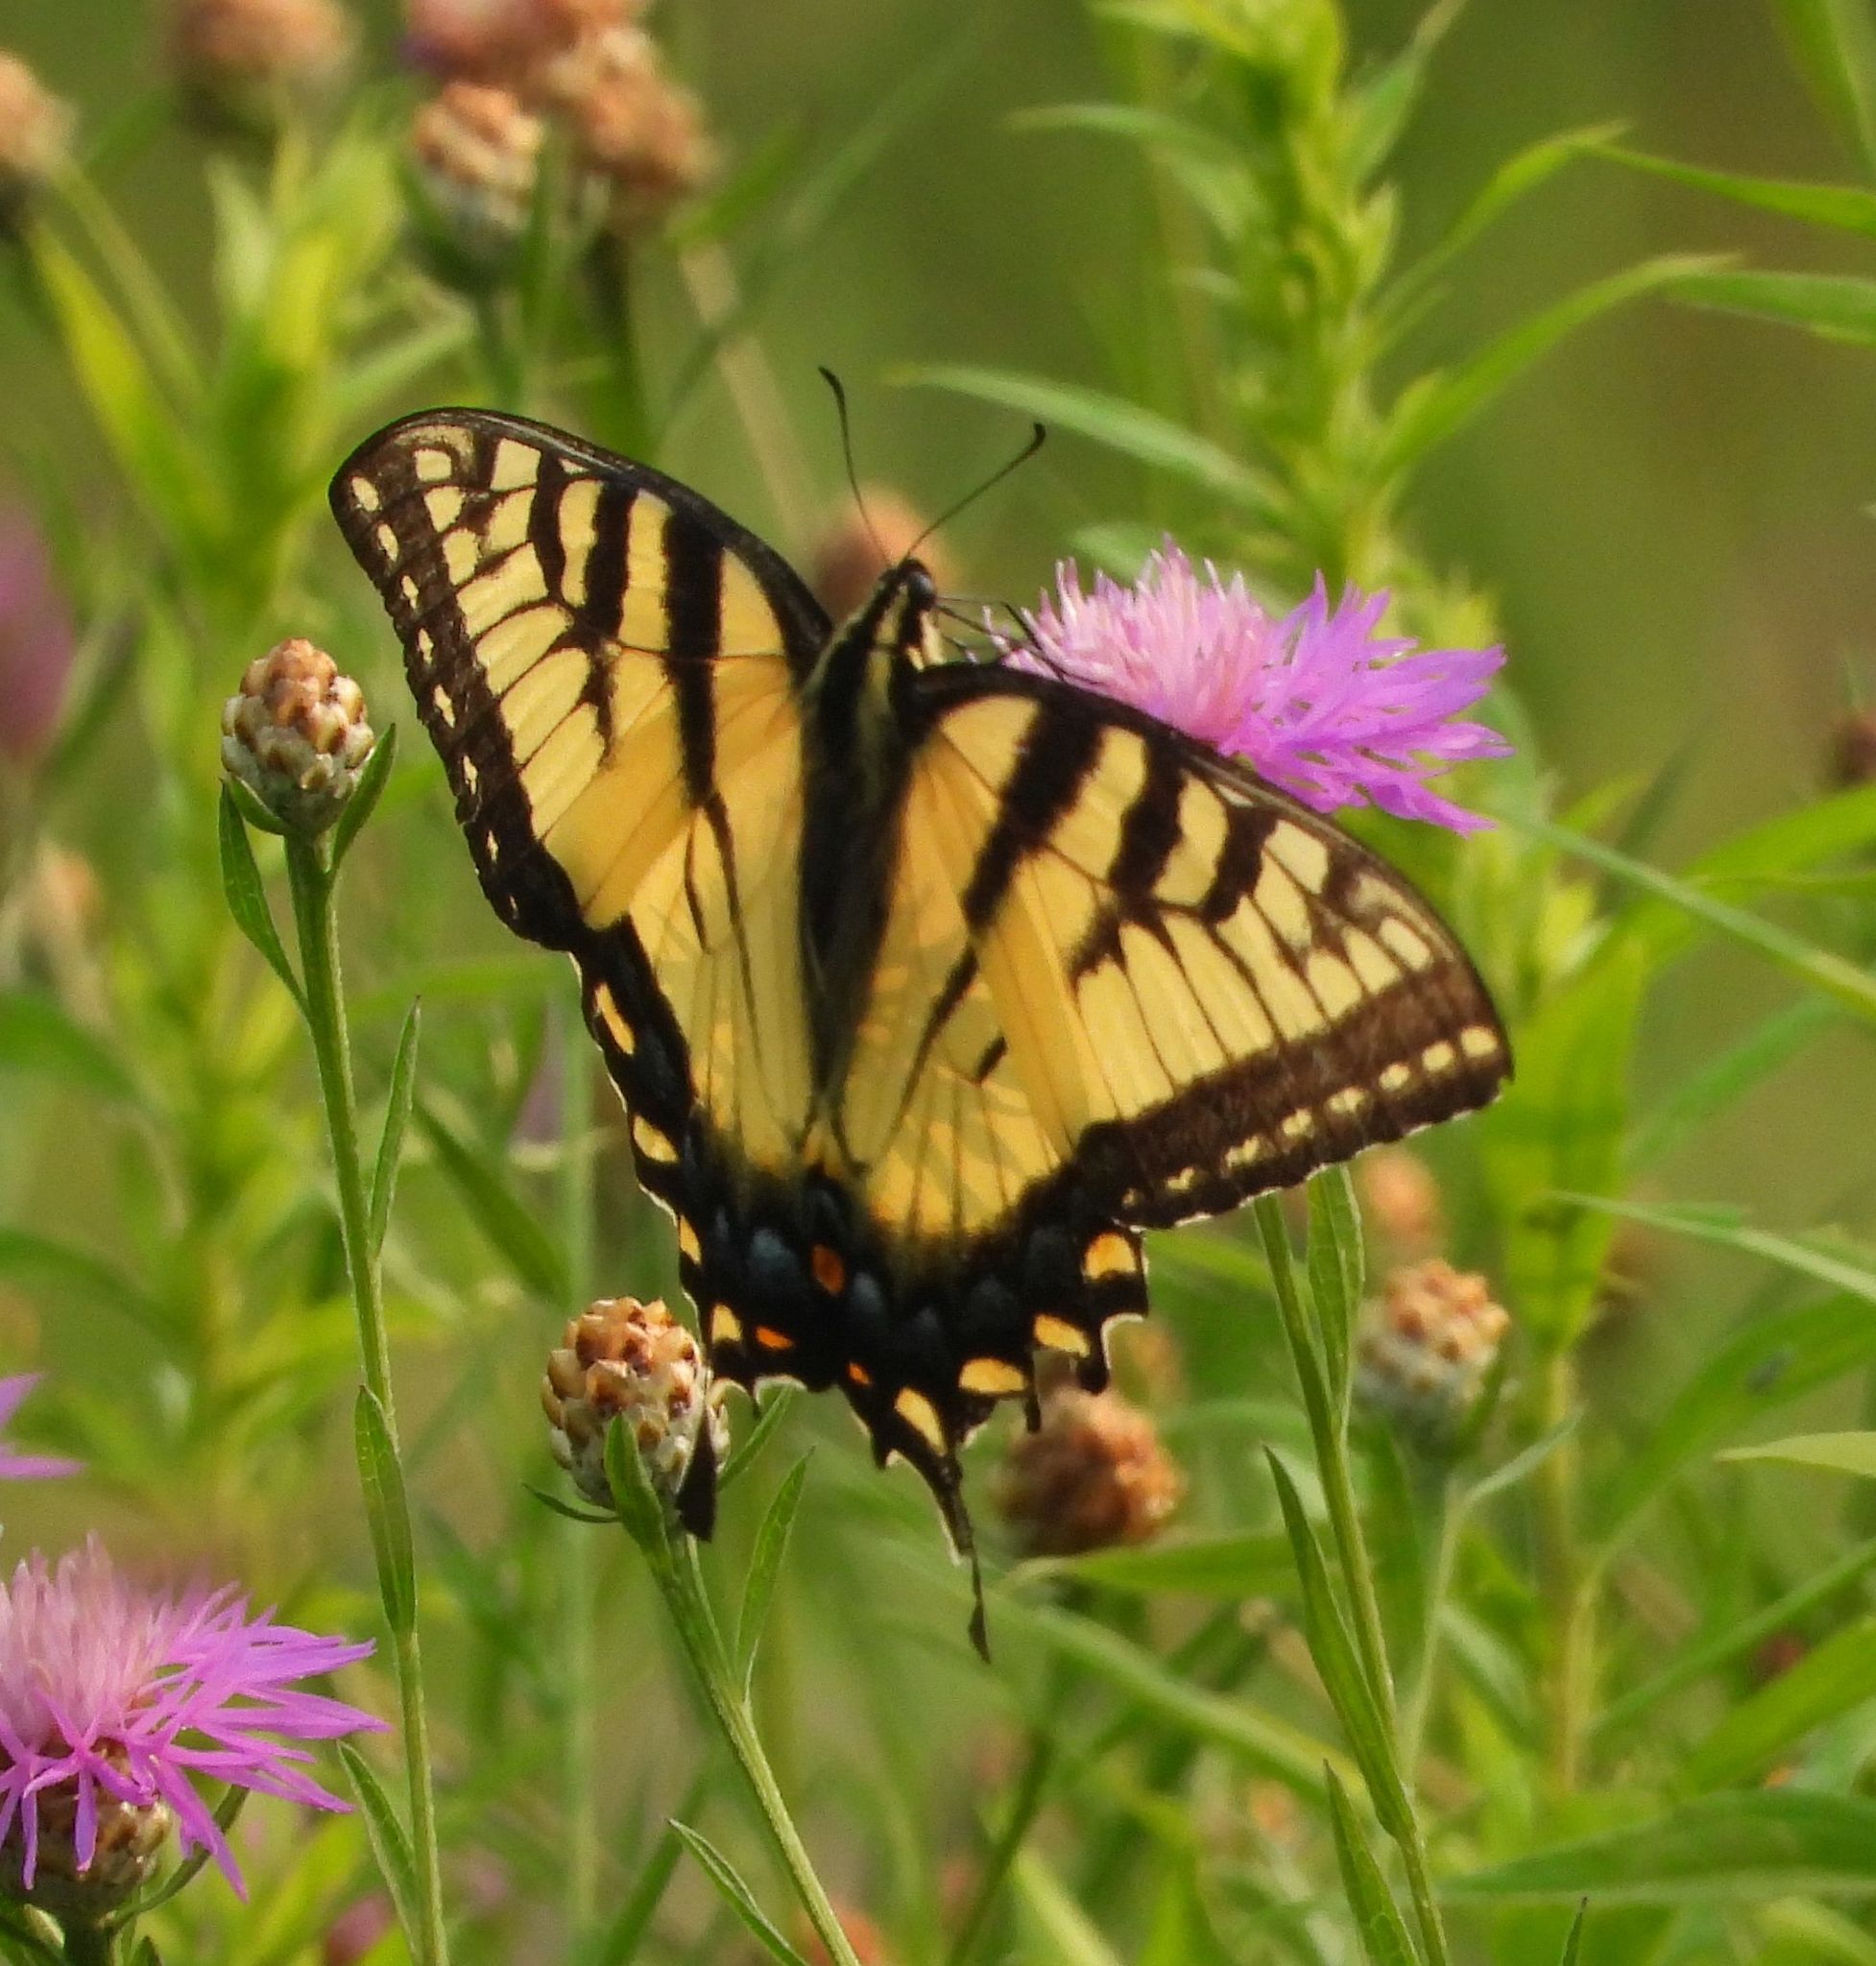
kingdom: Animalia
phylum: Arthropoda
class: Insecta
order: Lepidoptera
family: Papilionidae
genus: Papilio
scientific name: Papilio
